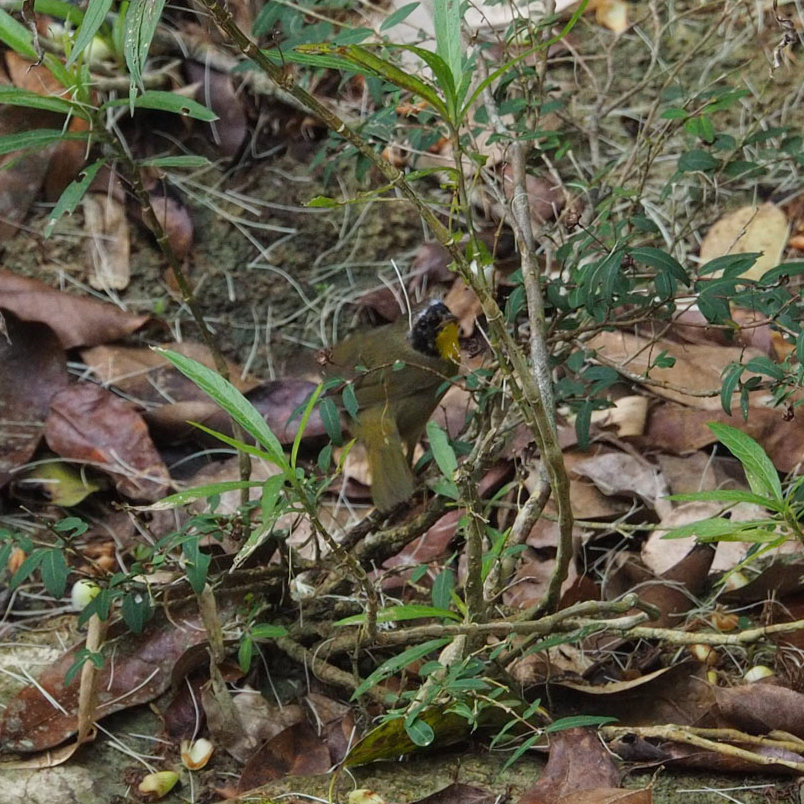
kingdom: Animalia
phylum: Chordata
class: Aves
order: Passeriformes
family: Parulidae
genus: Geothlypis
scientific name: Geothlypis trichas
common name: Common yellowthroat
